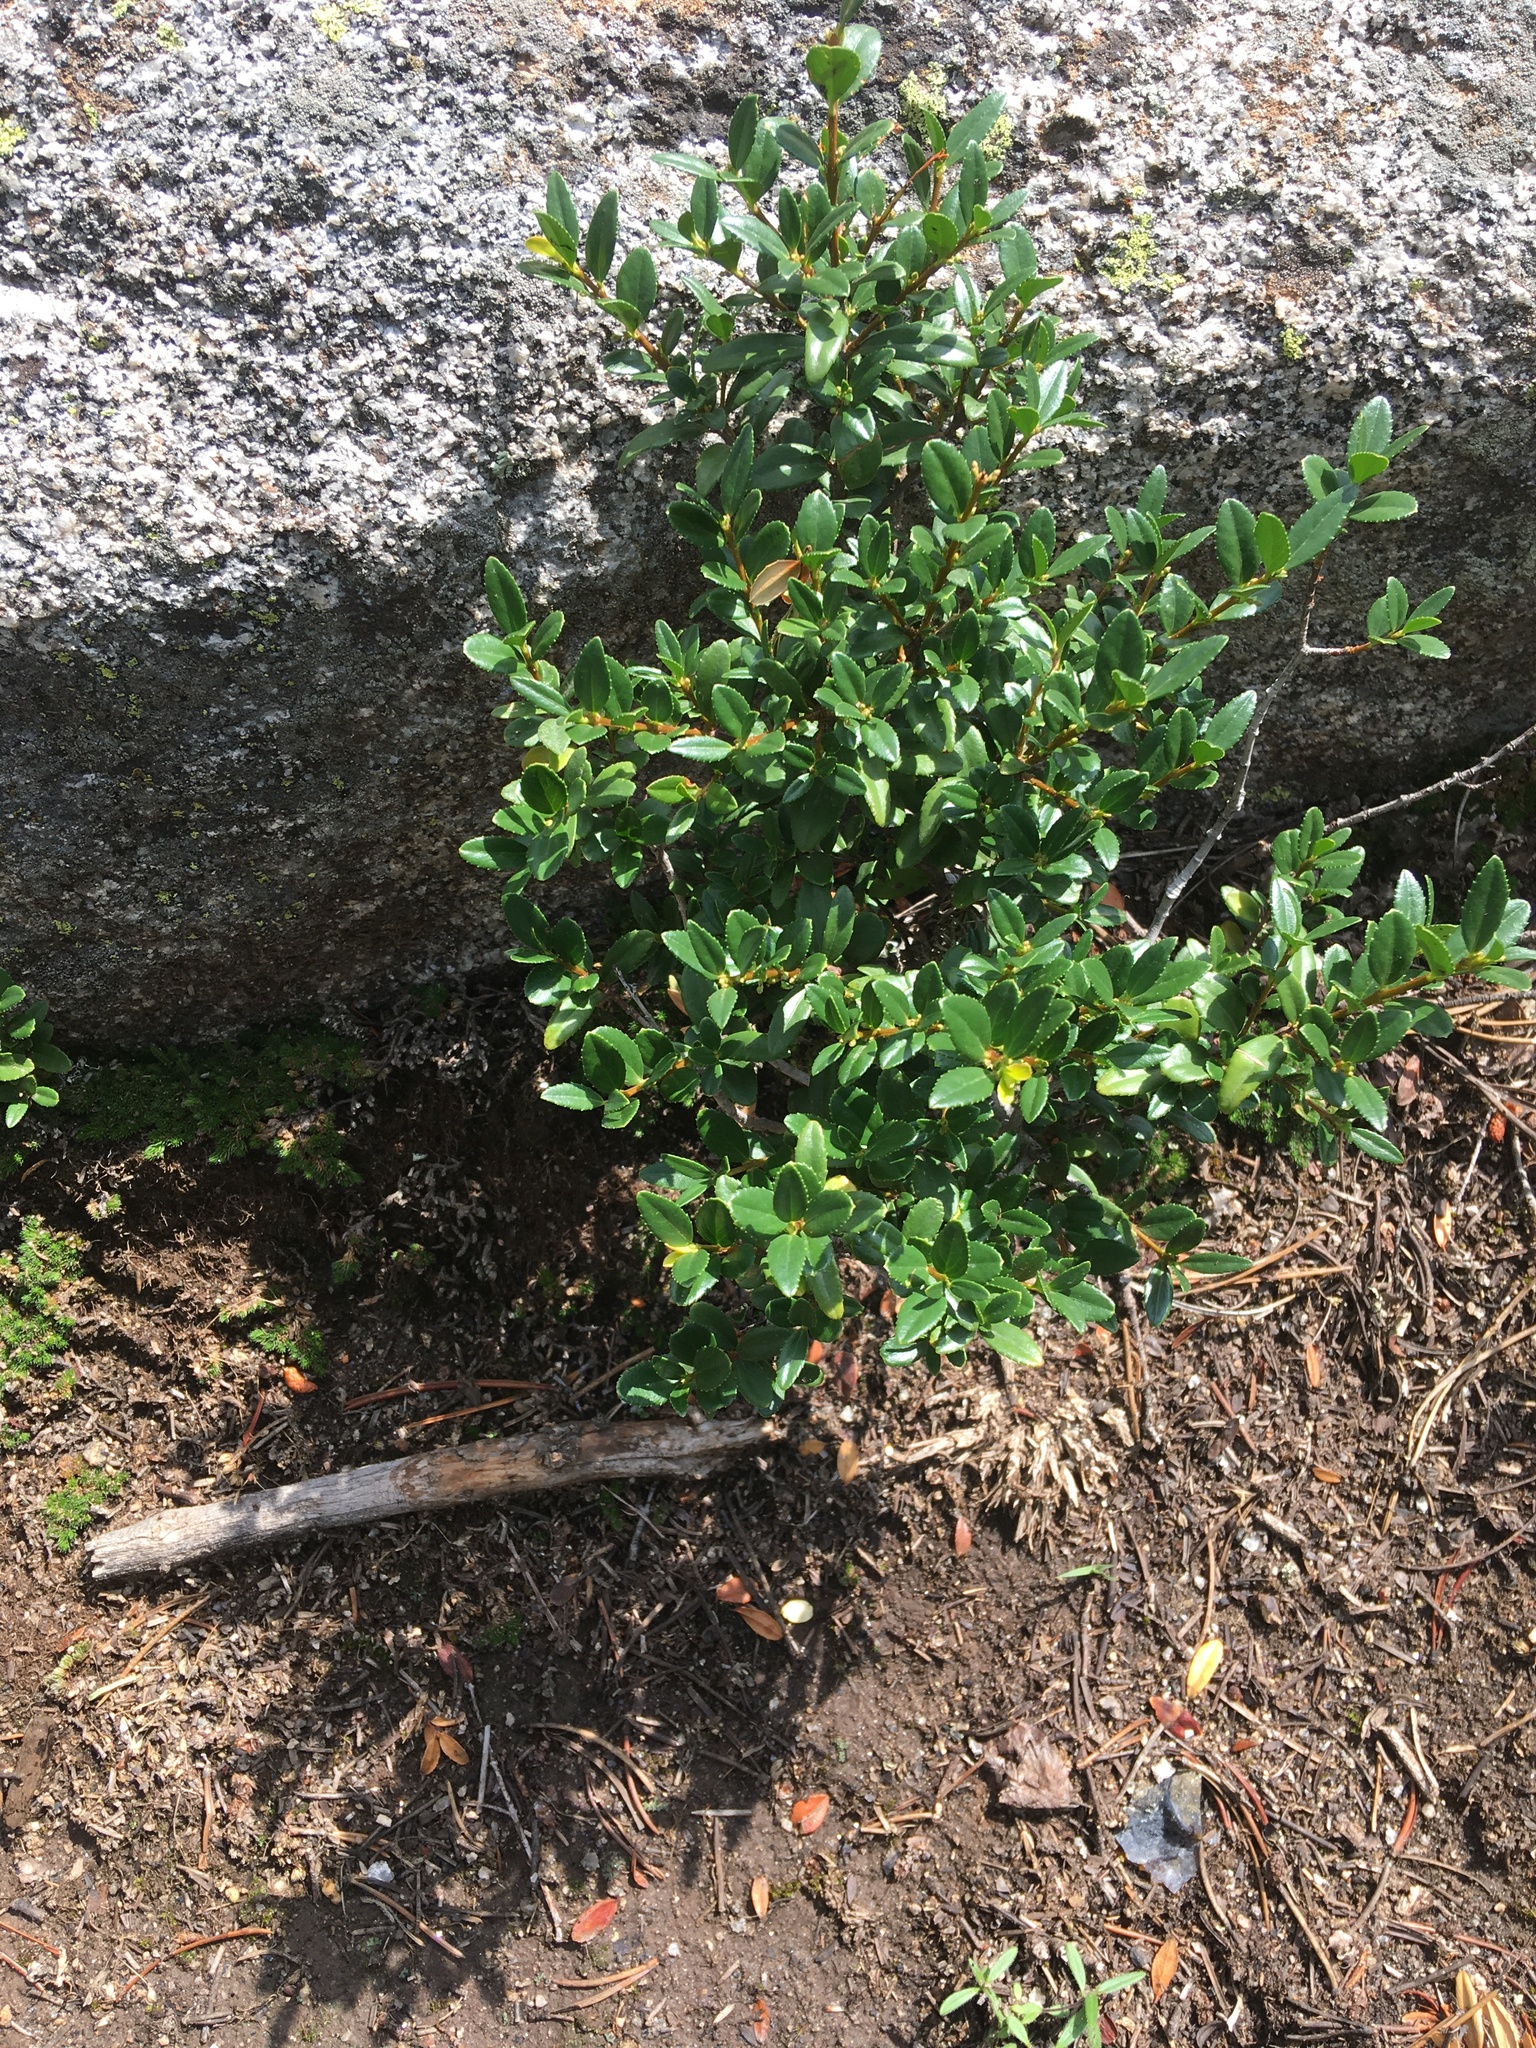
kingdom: Plantae
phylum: Tracheophyta
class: Magnoliopsida
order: Celastrales
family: Celastraceae
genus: Paxistima
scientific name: Paxistima myrsinites
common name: Mountain-lover
